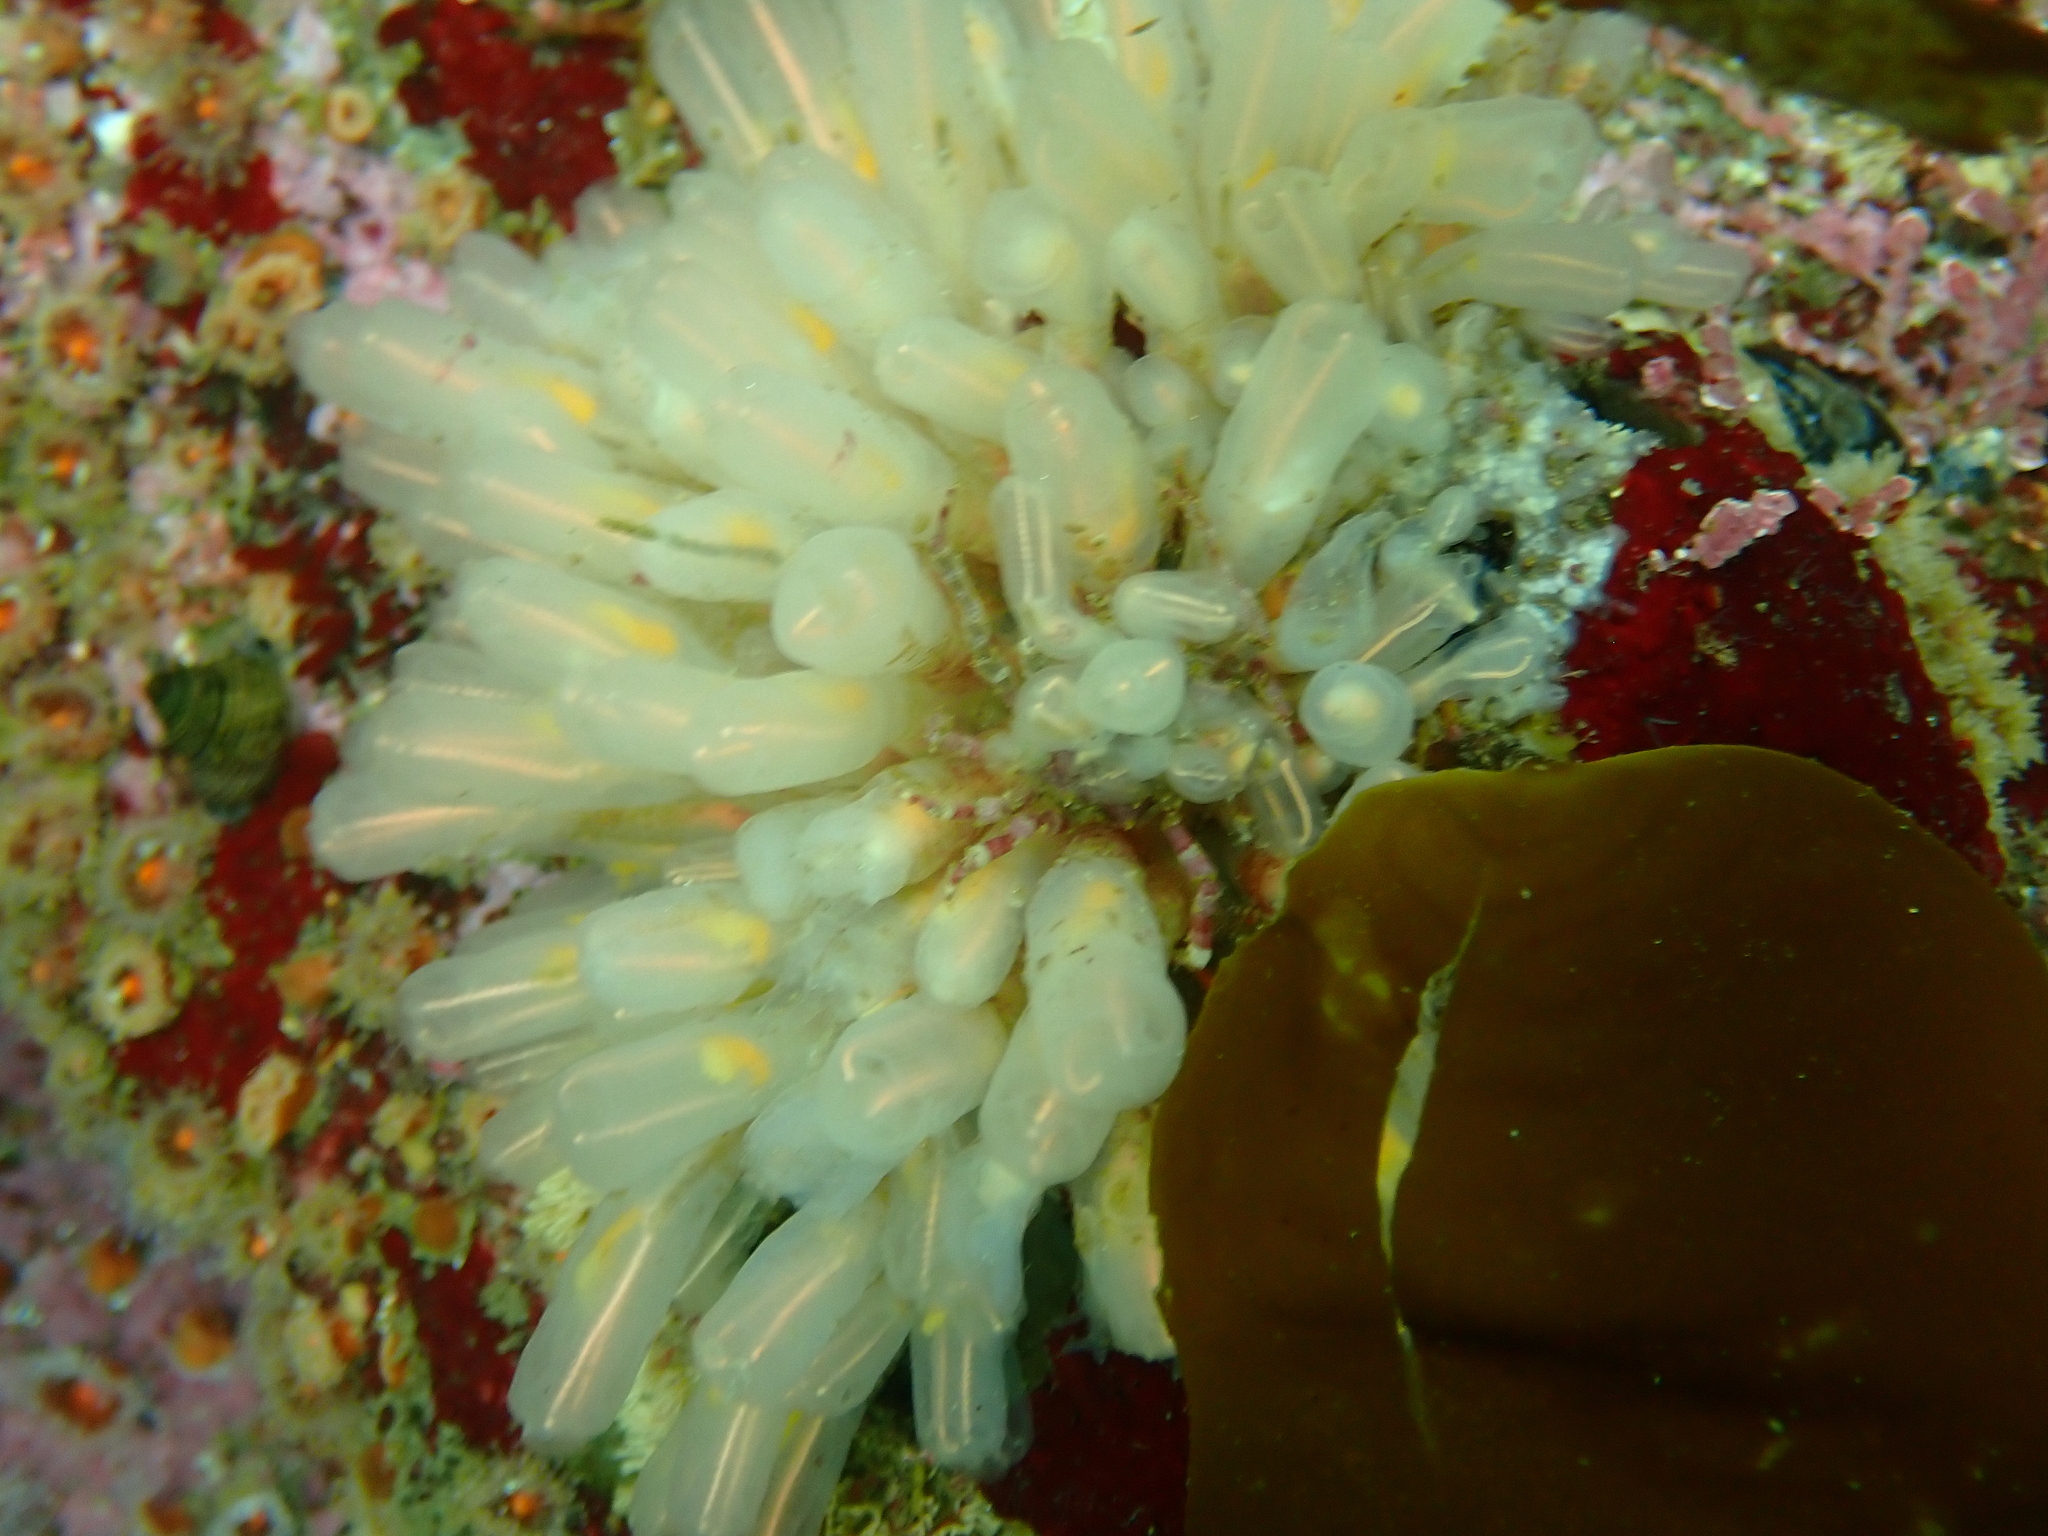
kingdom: Animalia
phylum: Chordata
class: Ascidiacea
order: Aplousobranchia
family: Clavelinidae
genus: Clavelina
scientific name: Clavelina huntsmani
